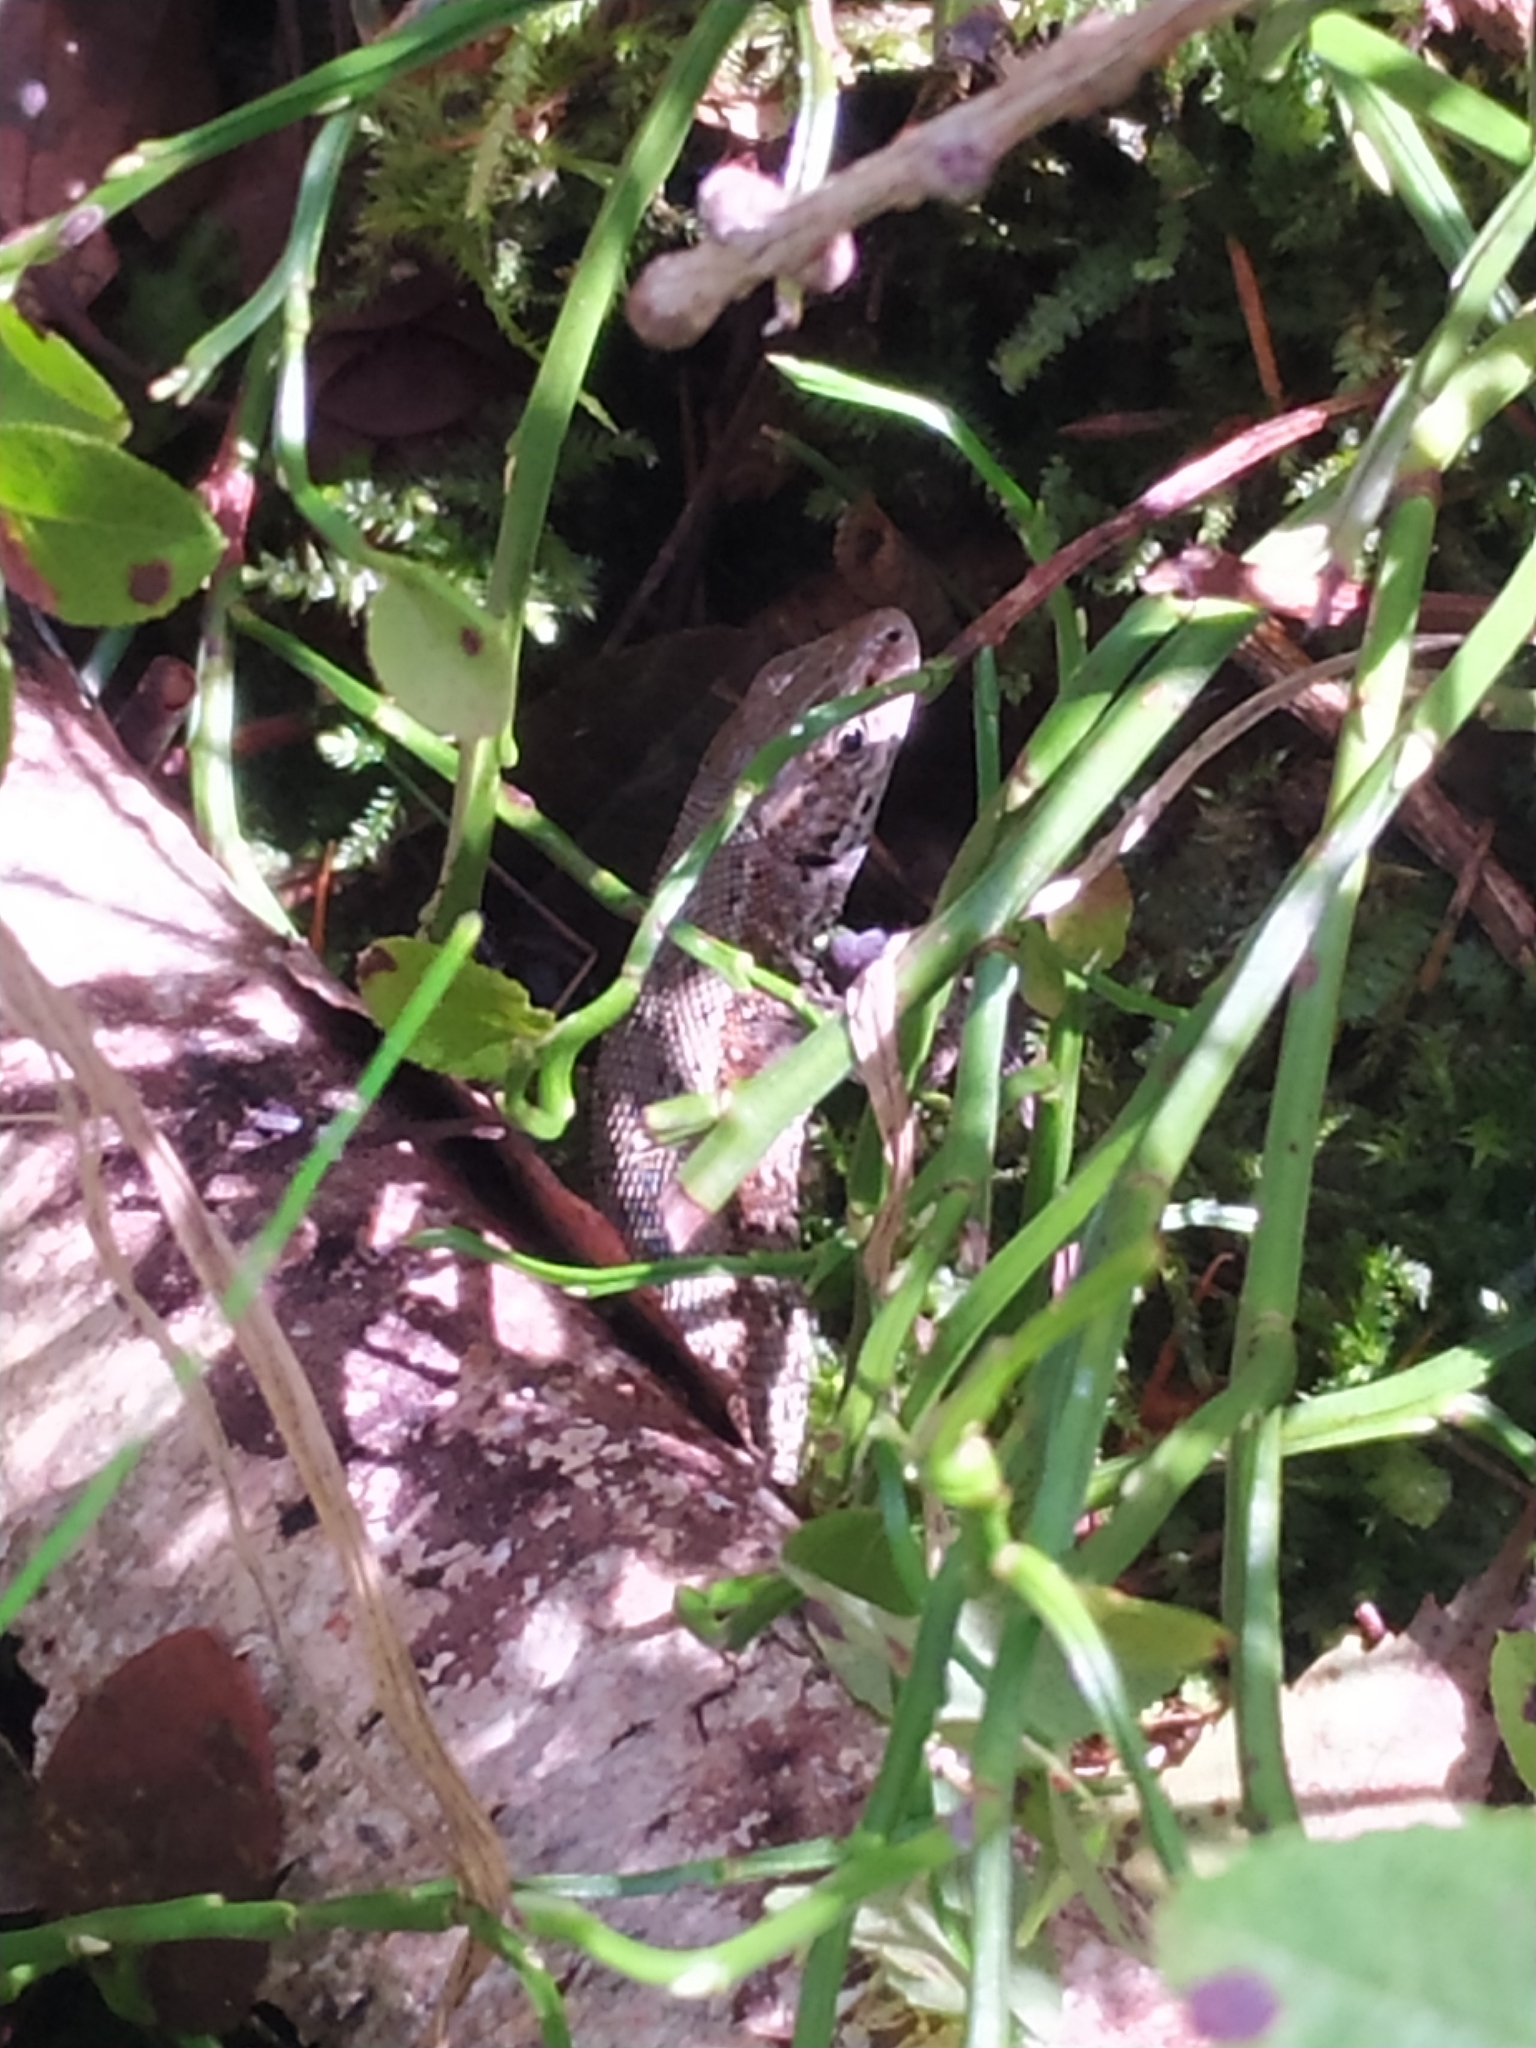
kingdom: Animalia
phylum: Chordata
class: Squamata
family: Lacertidae
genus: Zootoca
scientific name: Zootoca vivipara
